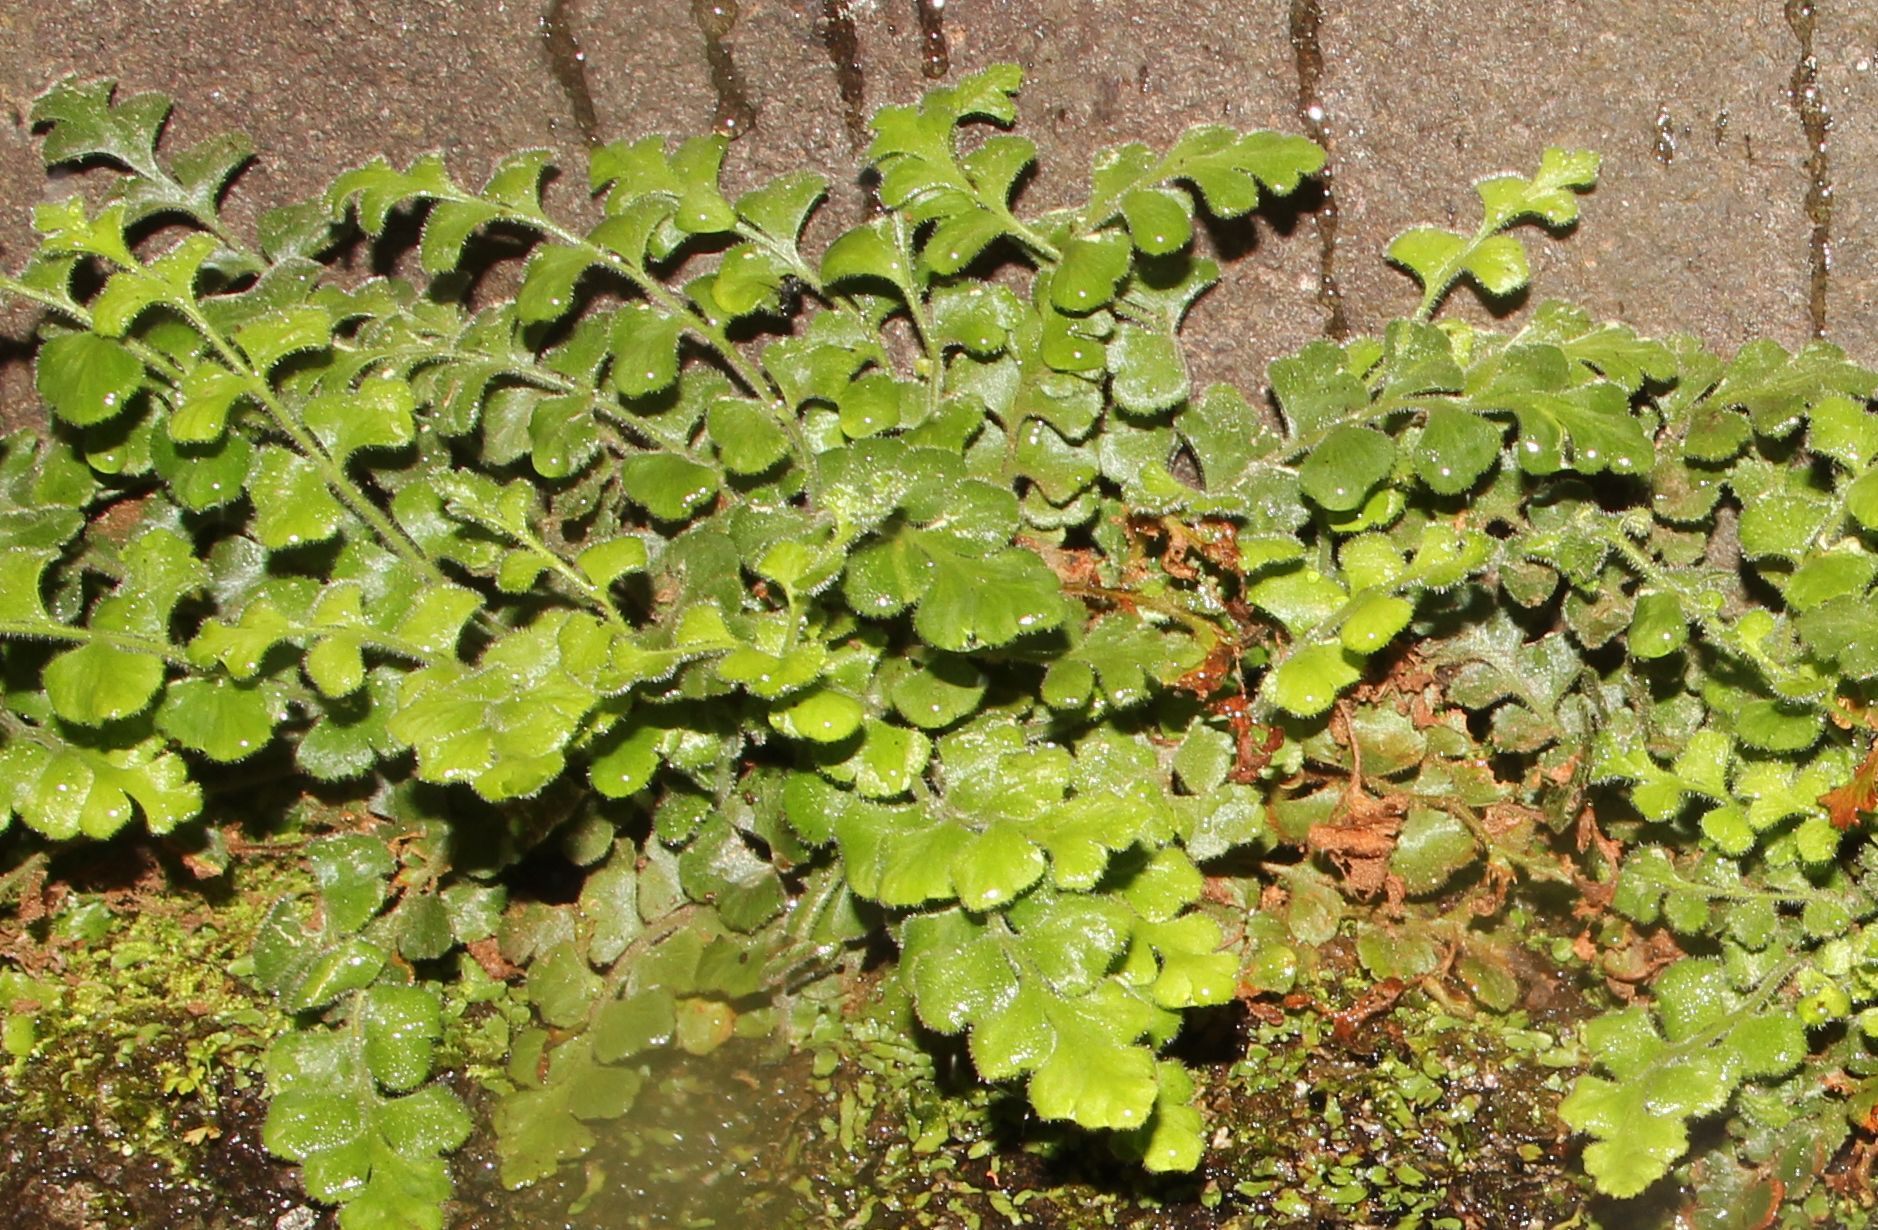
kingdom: Plantae
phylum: Tracheophyta
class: Polypodiopsida
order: Polypodiales
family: Aspleniaceae
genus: Asplenium
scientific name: Asplenium subglandulosum
